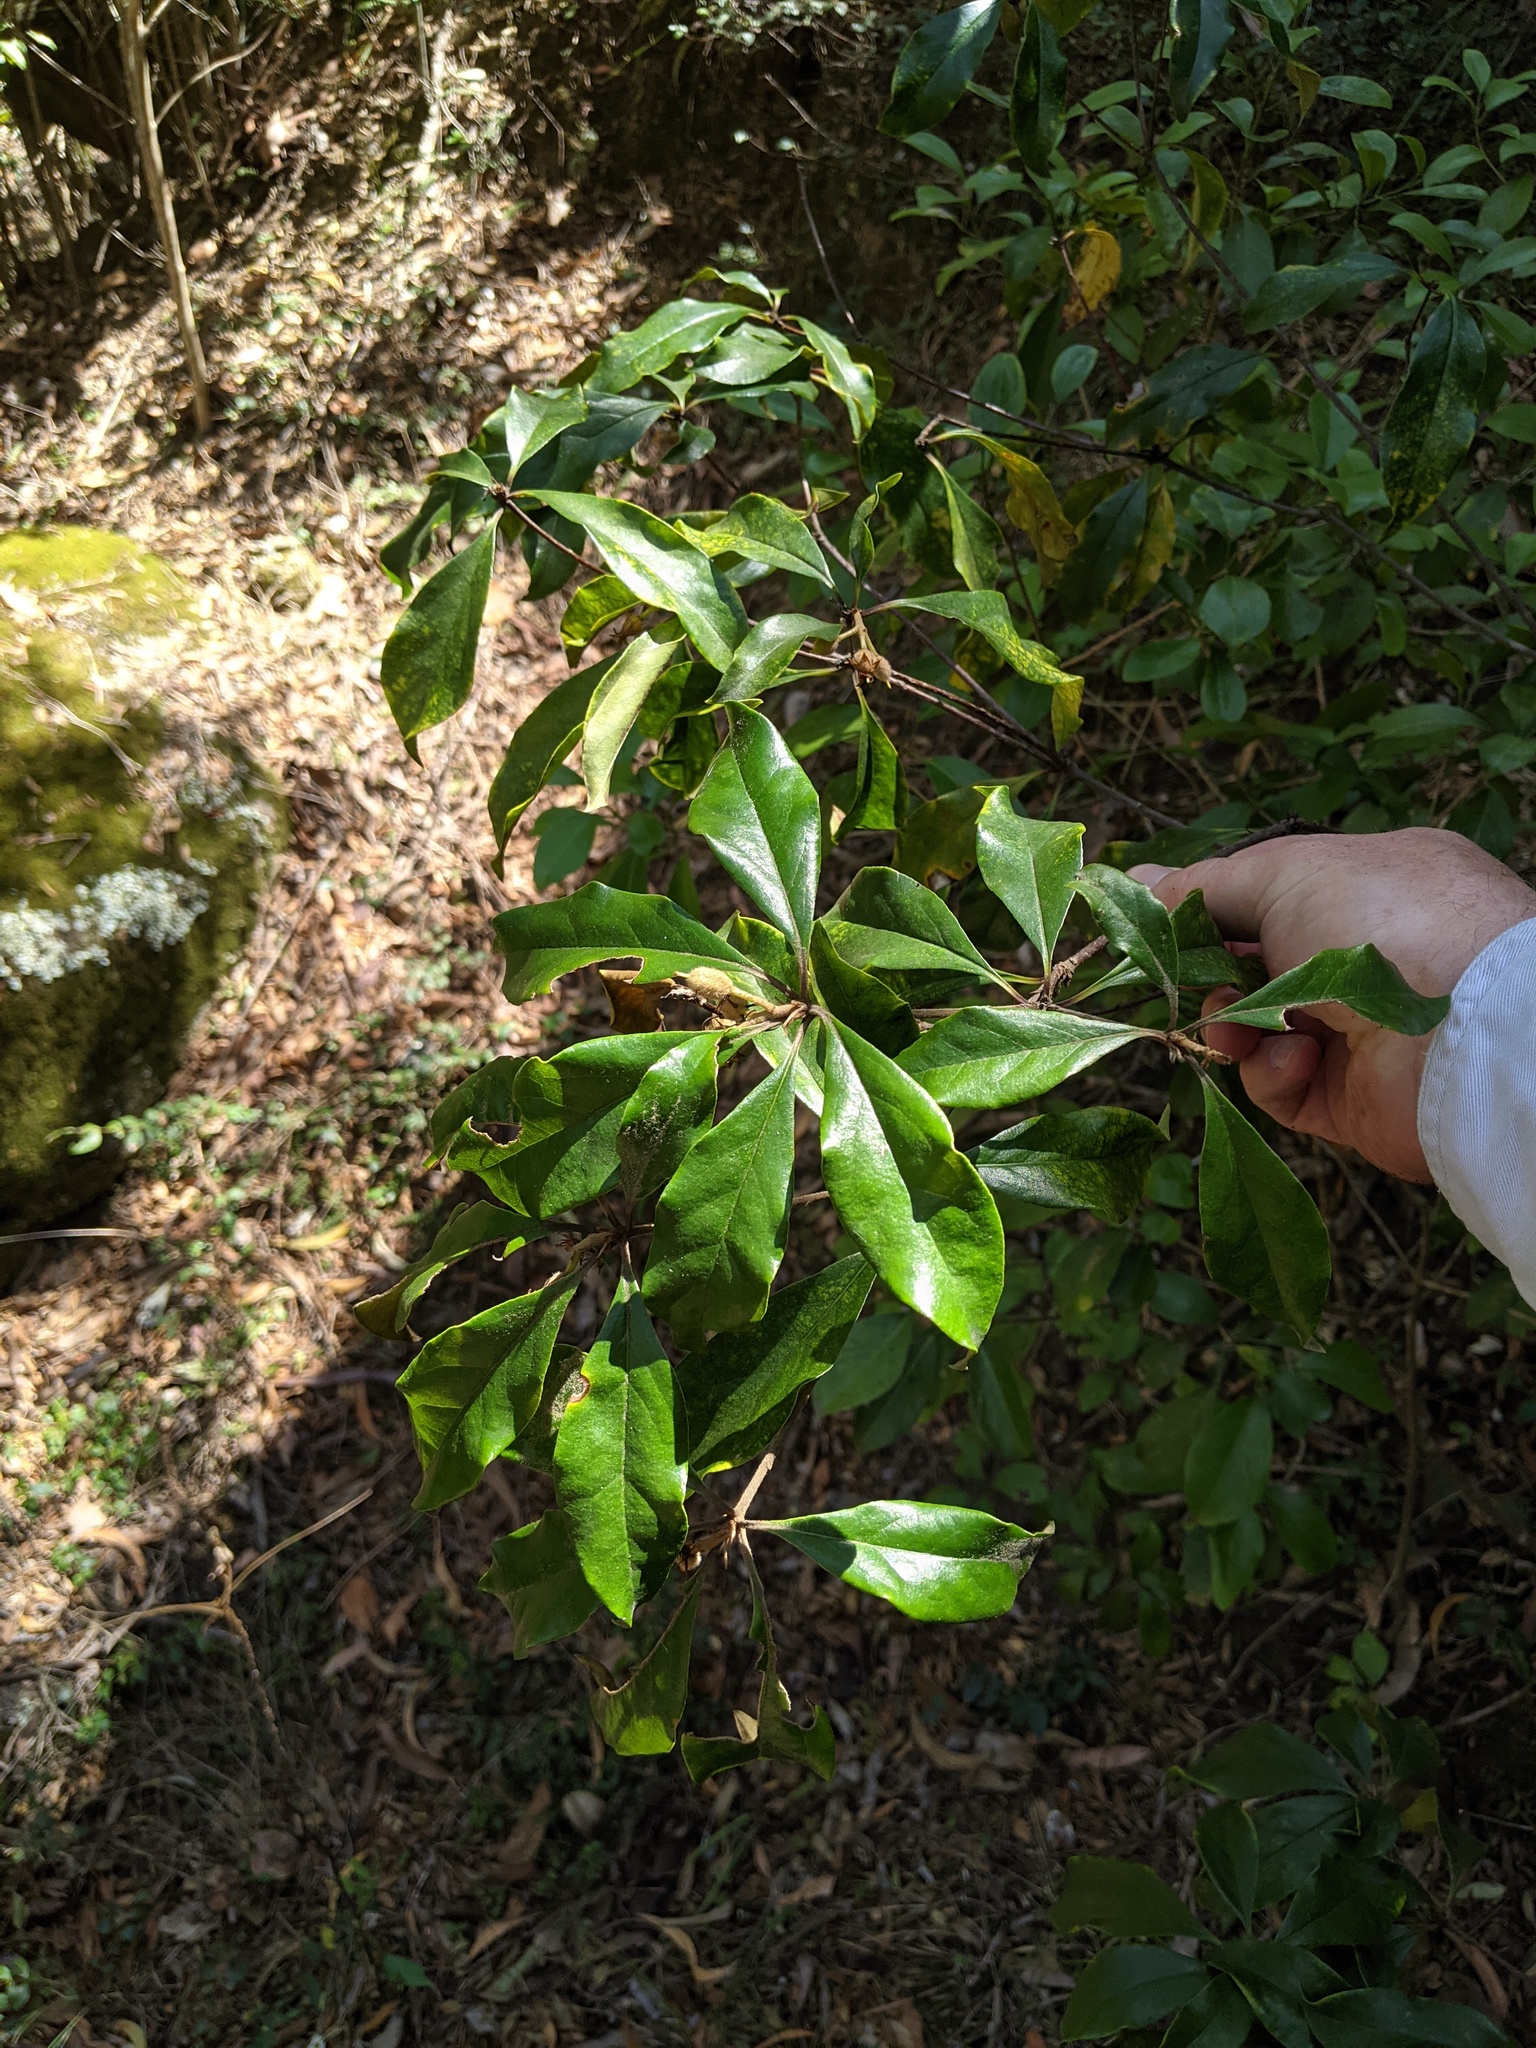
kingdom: Plantae
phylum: Tracheophyta
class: Magnoliopsida
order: Apiales
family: Pittosporaceae
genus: Pittosporum
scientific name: Pittosporum revolutum
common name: Brisbane-laurel
